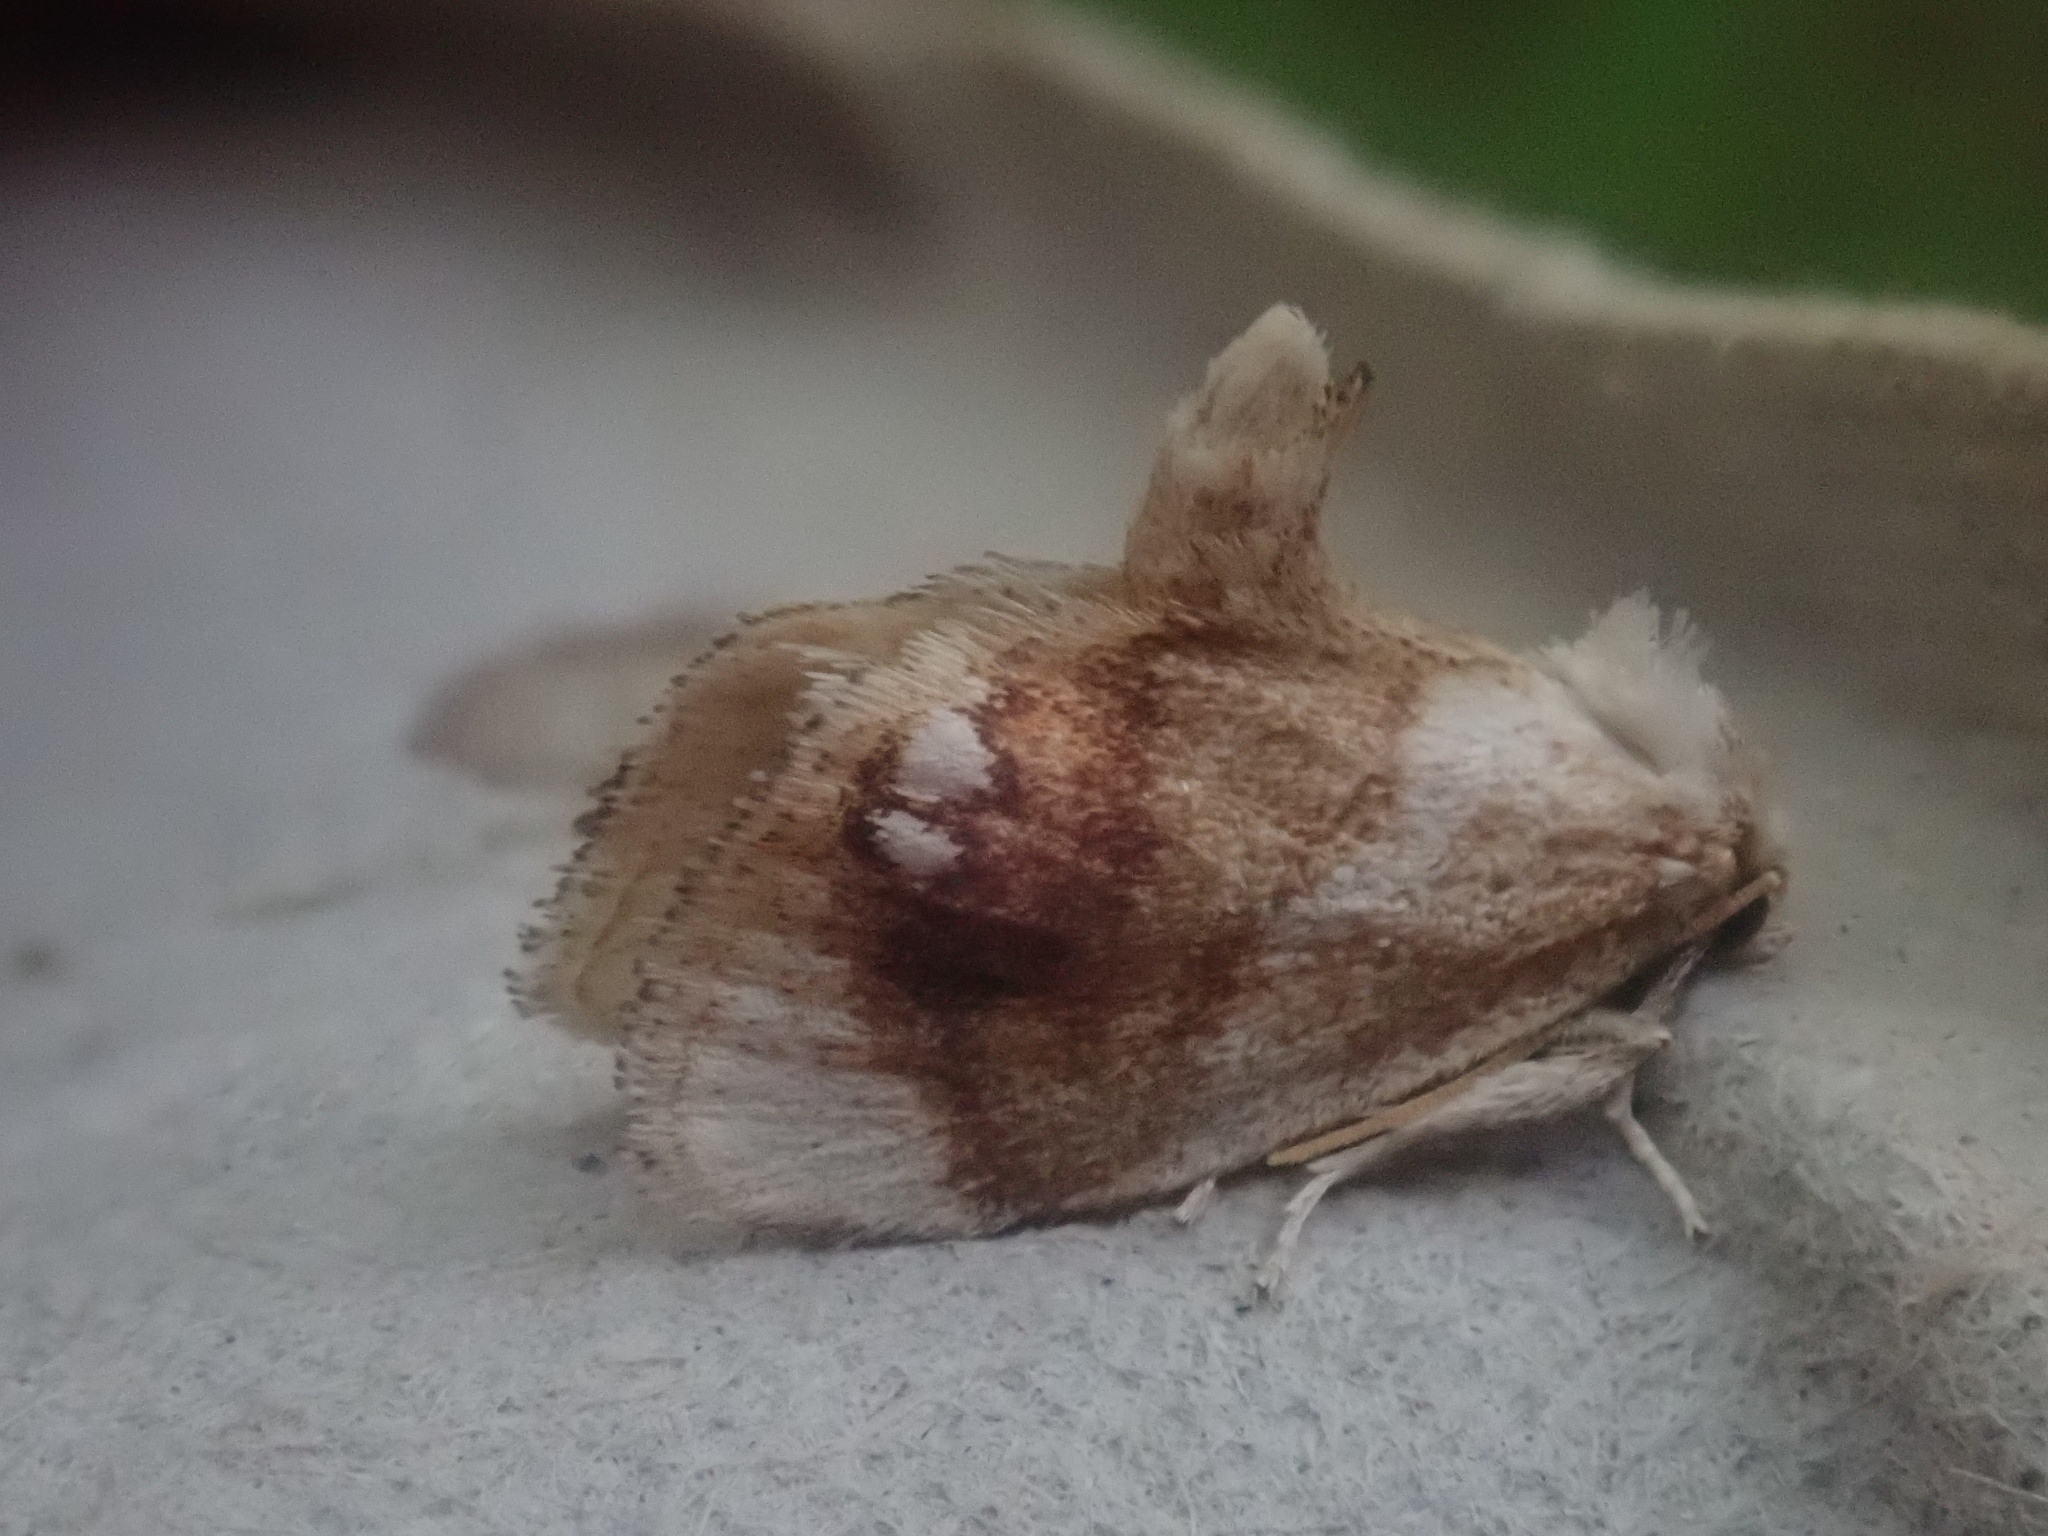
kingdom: Animalia
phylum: Arthropoda
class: Insecta
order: Lepidoptera
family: Limacodidae
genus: Packardia
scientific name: Packardia geminata
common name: Jeweled tailed slug moth
